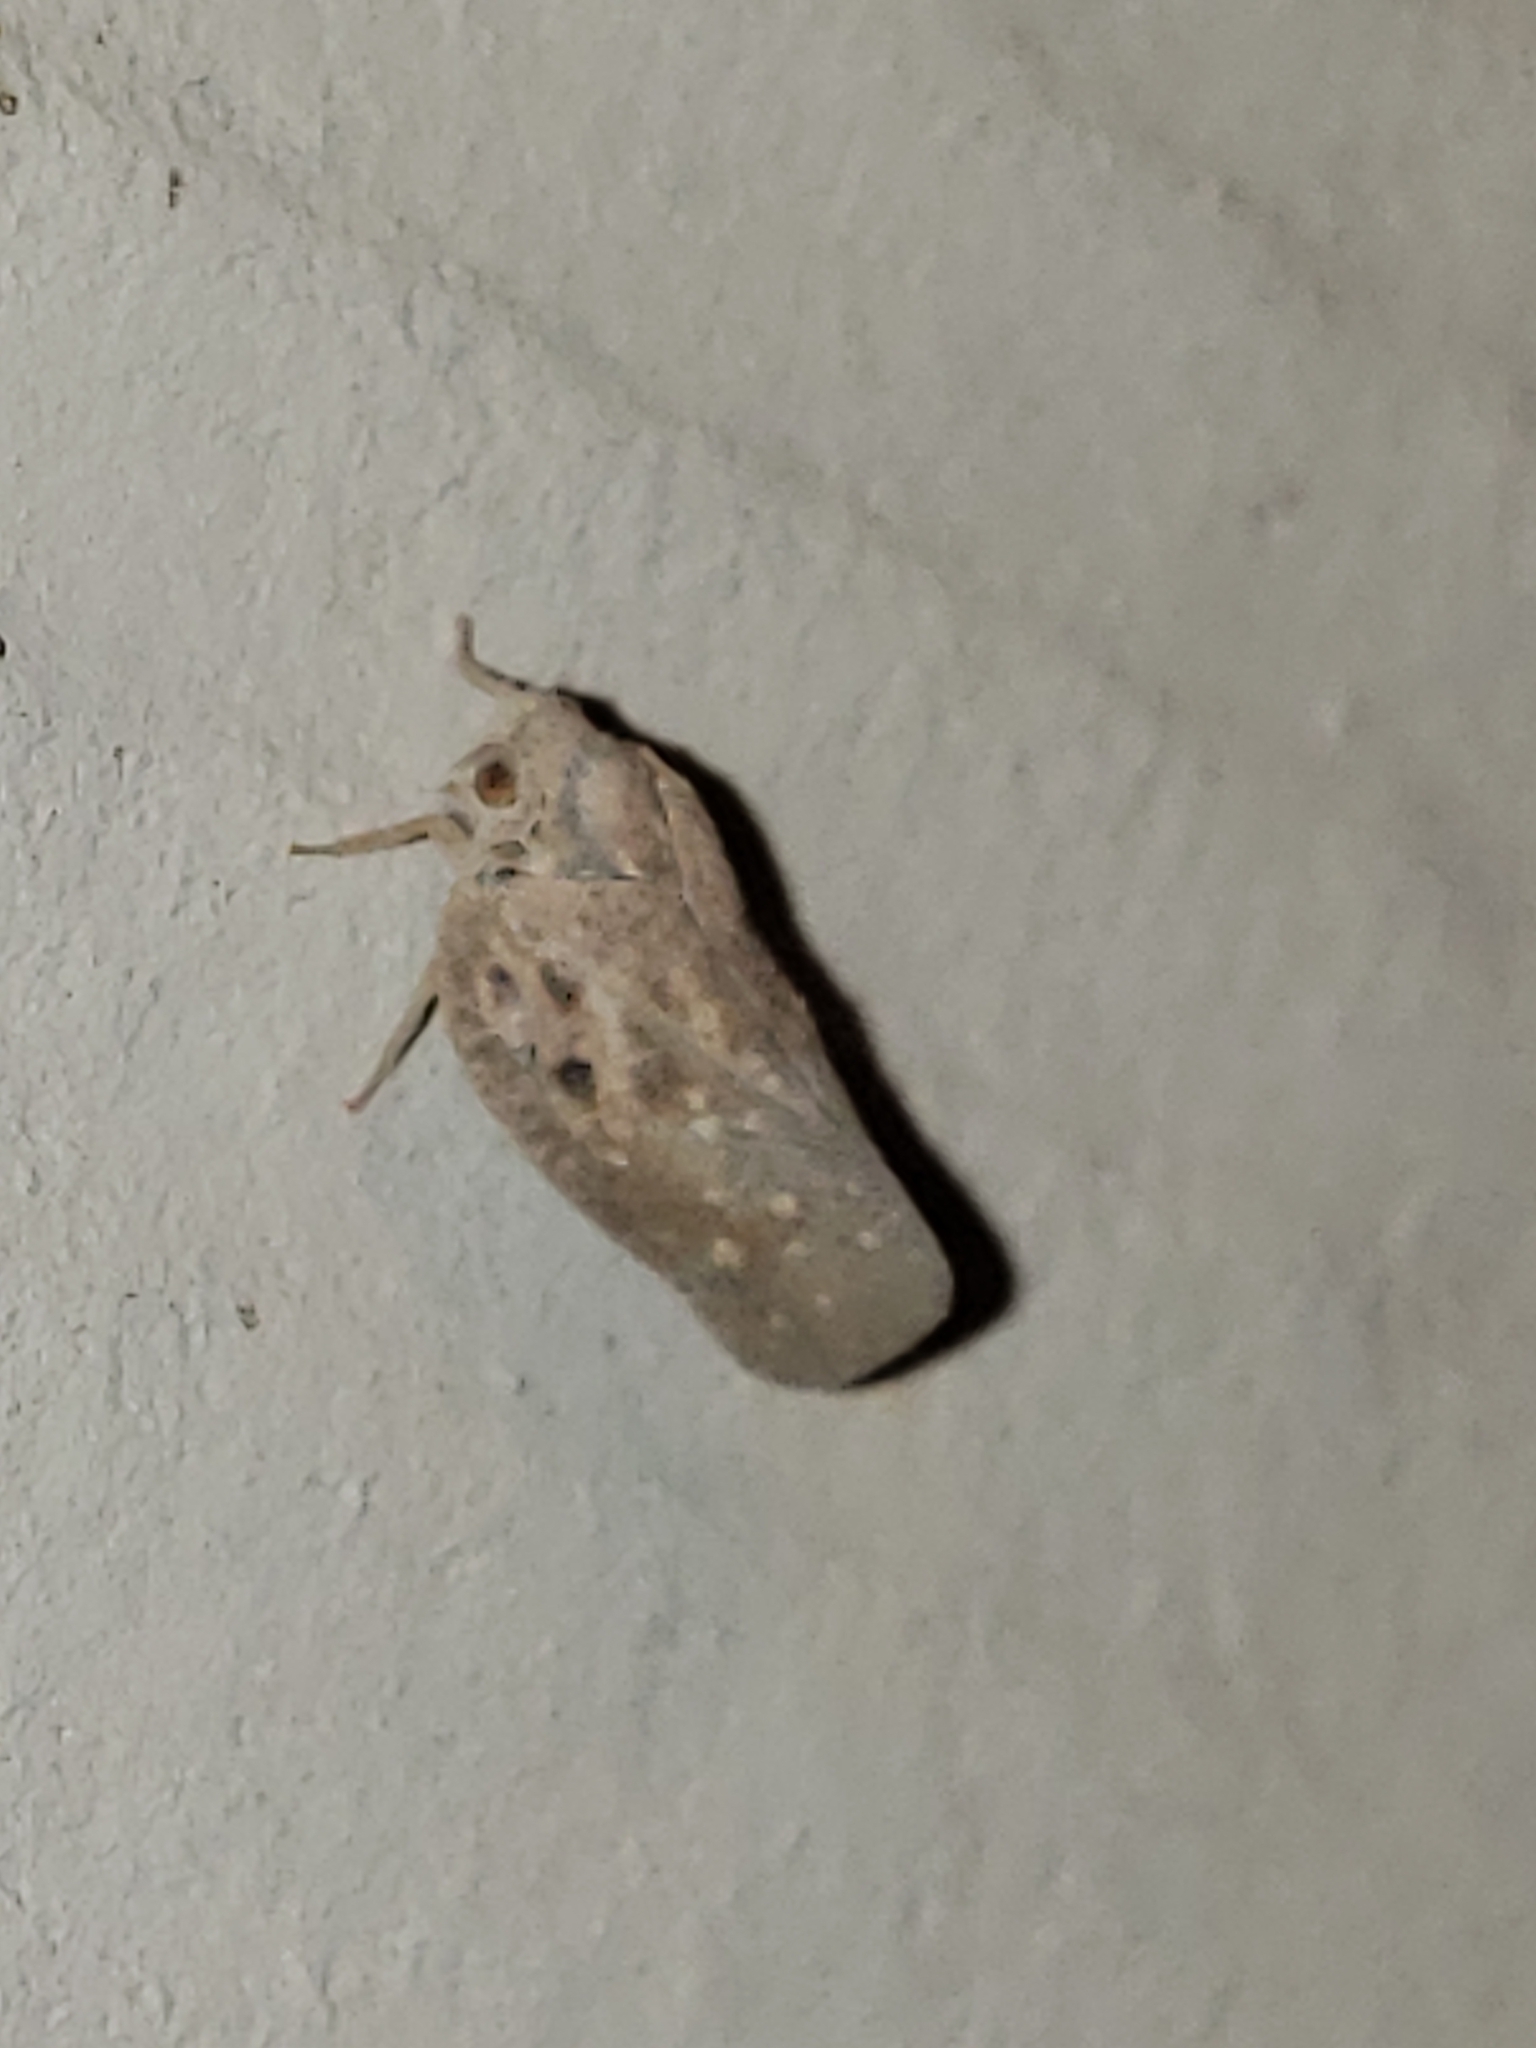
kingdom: Animalia
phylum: Arthropoda
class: Insecta
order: Hemiptera
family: Flatidae
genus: Metcalfa
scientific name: Metcalfa pruinosa
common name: Citrus flatid planthopper
